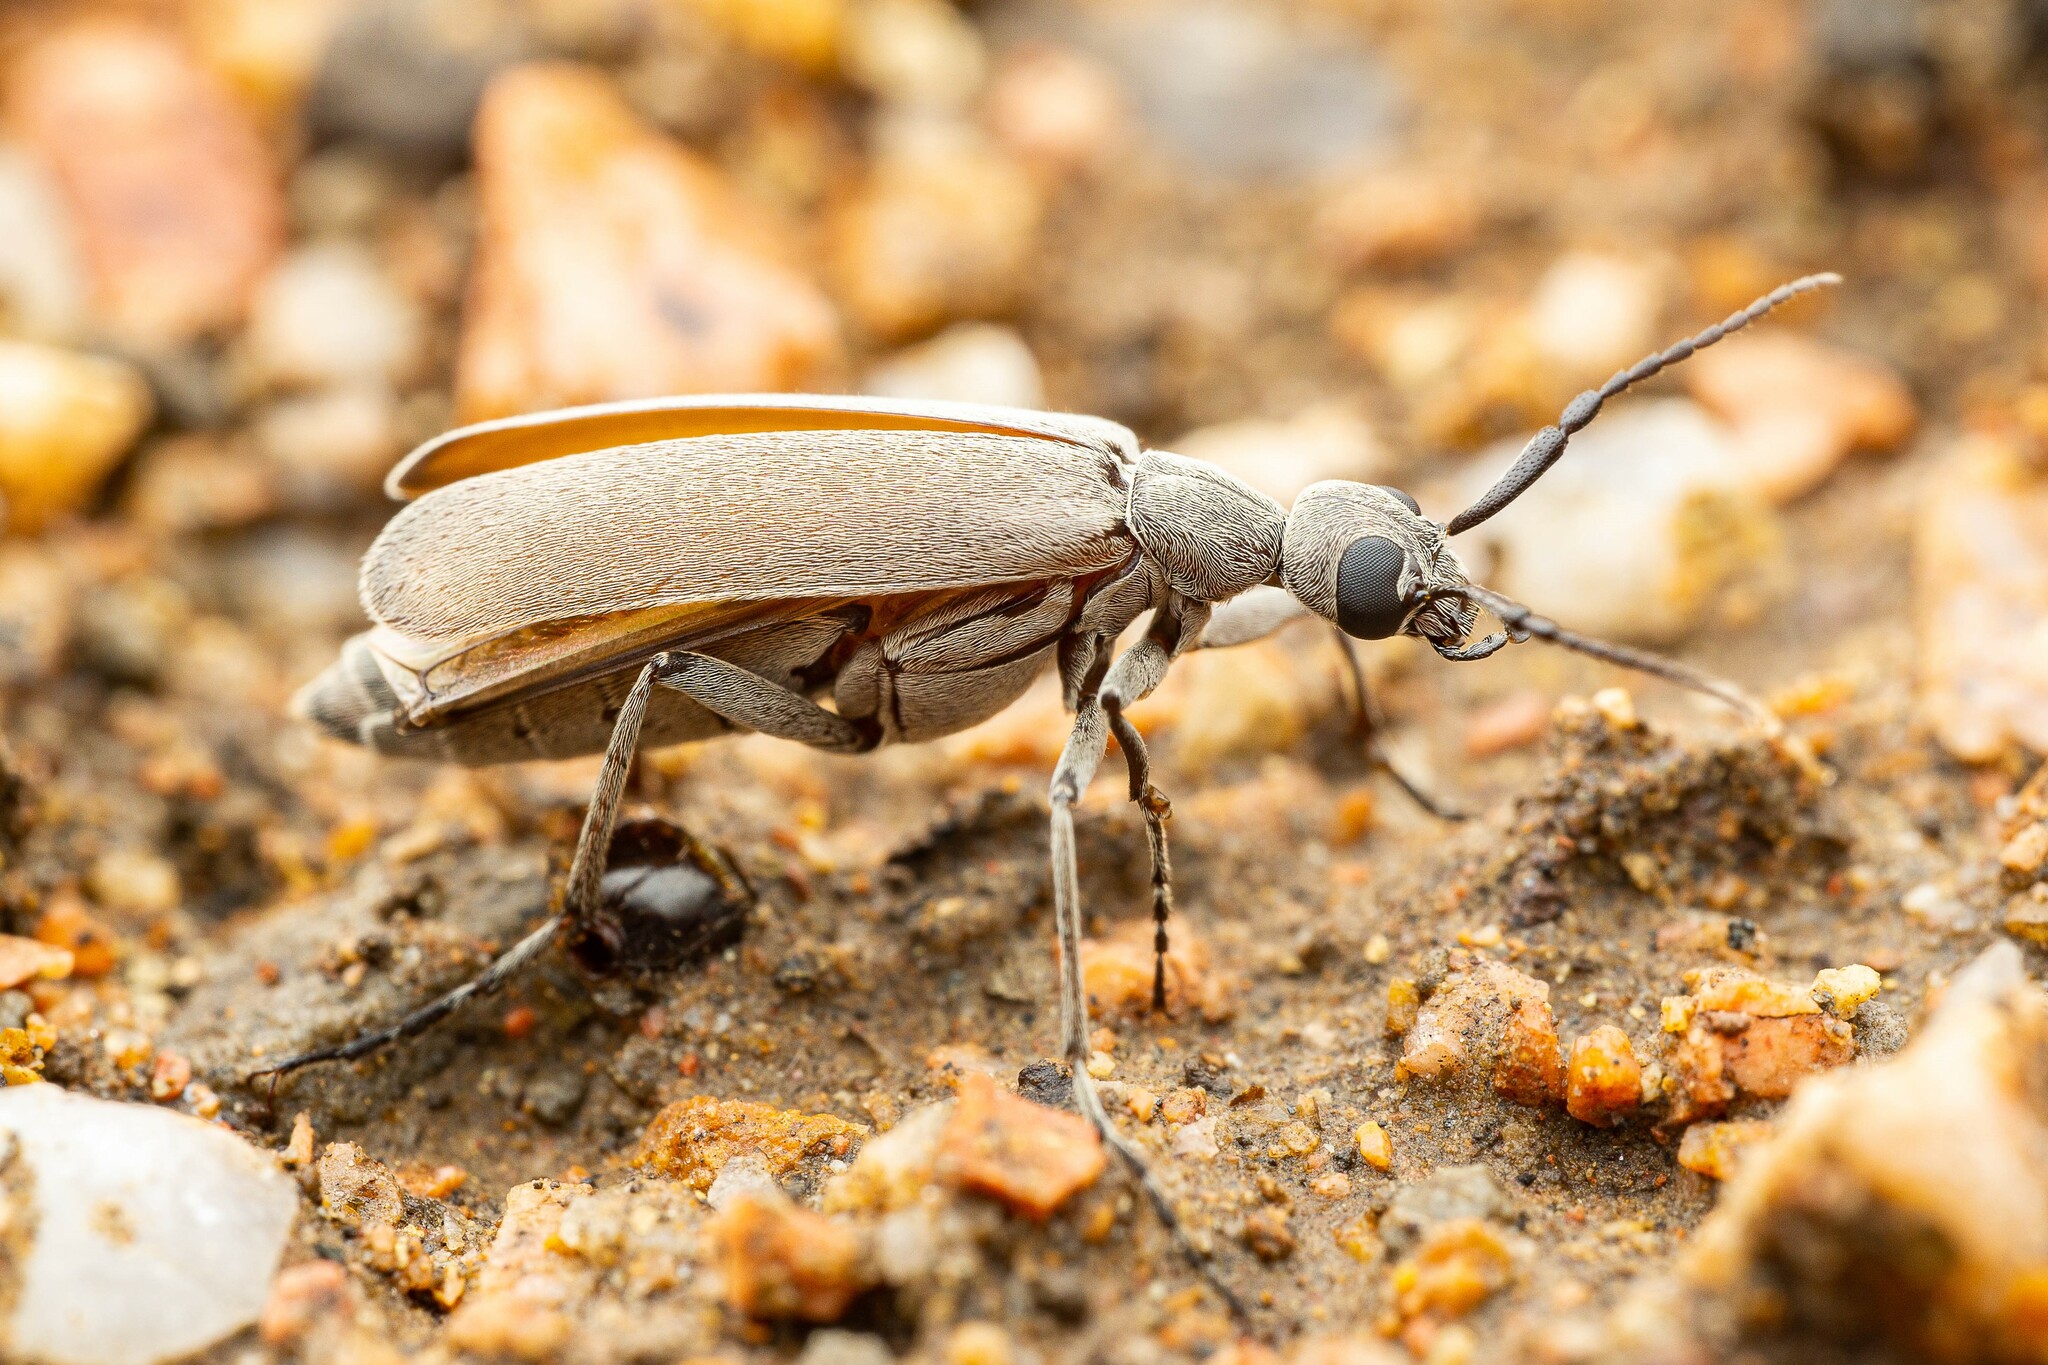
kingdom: Animalia
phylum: Arthropoda
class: Insecta
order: Coleoptera
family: Meloidae
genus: Epicauta
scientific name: Epicauta arizonica
